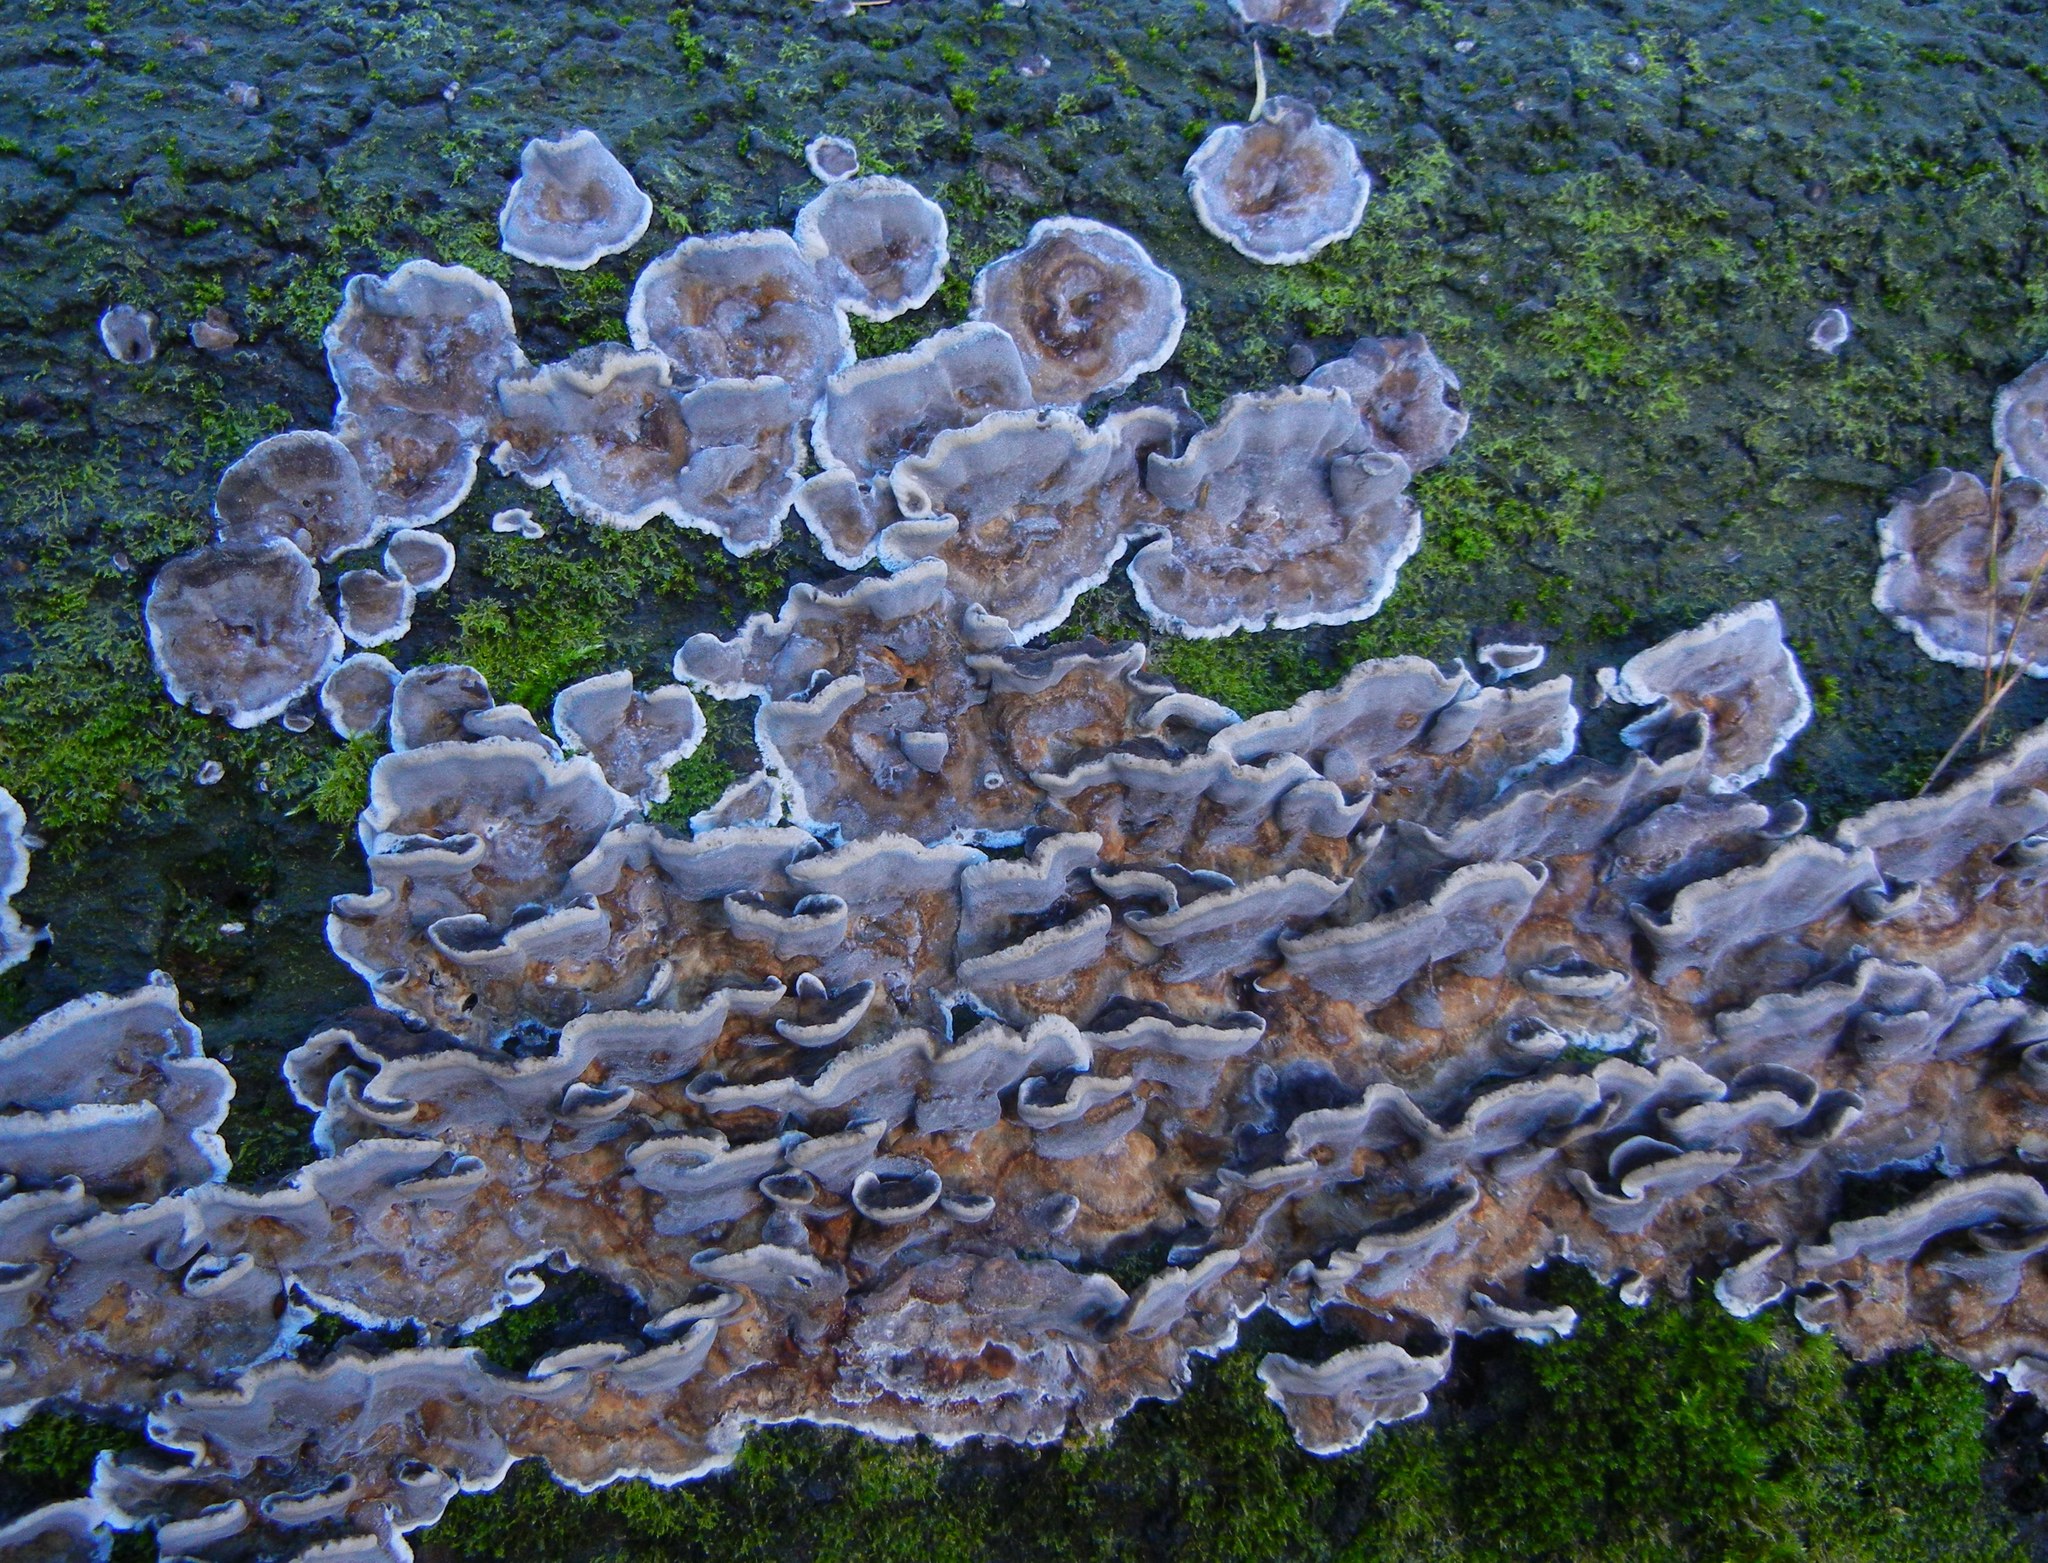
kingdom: Fungi
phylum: Basidiomycota
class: Agaricomycetes
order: Polyporales
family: Phanerochaetaceae
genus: Bjerkandera
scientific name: Bjerkandera adusta
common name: Smoky bracket
